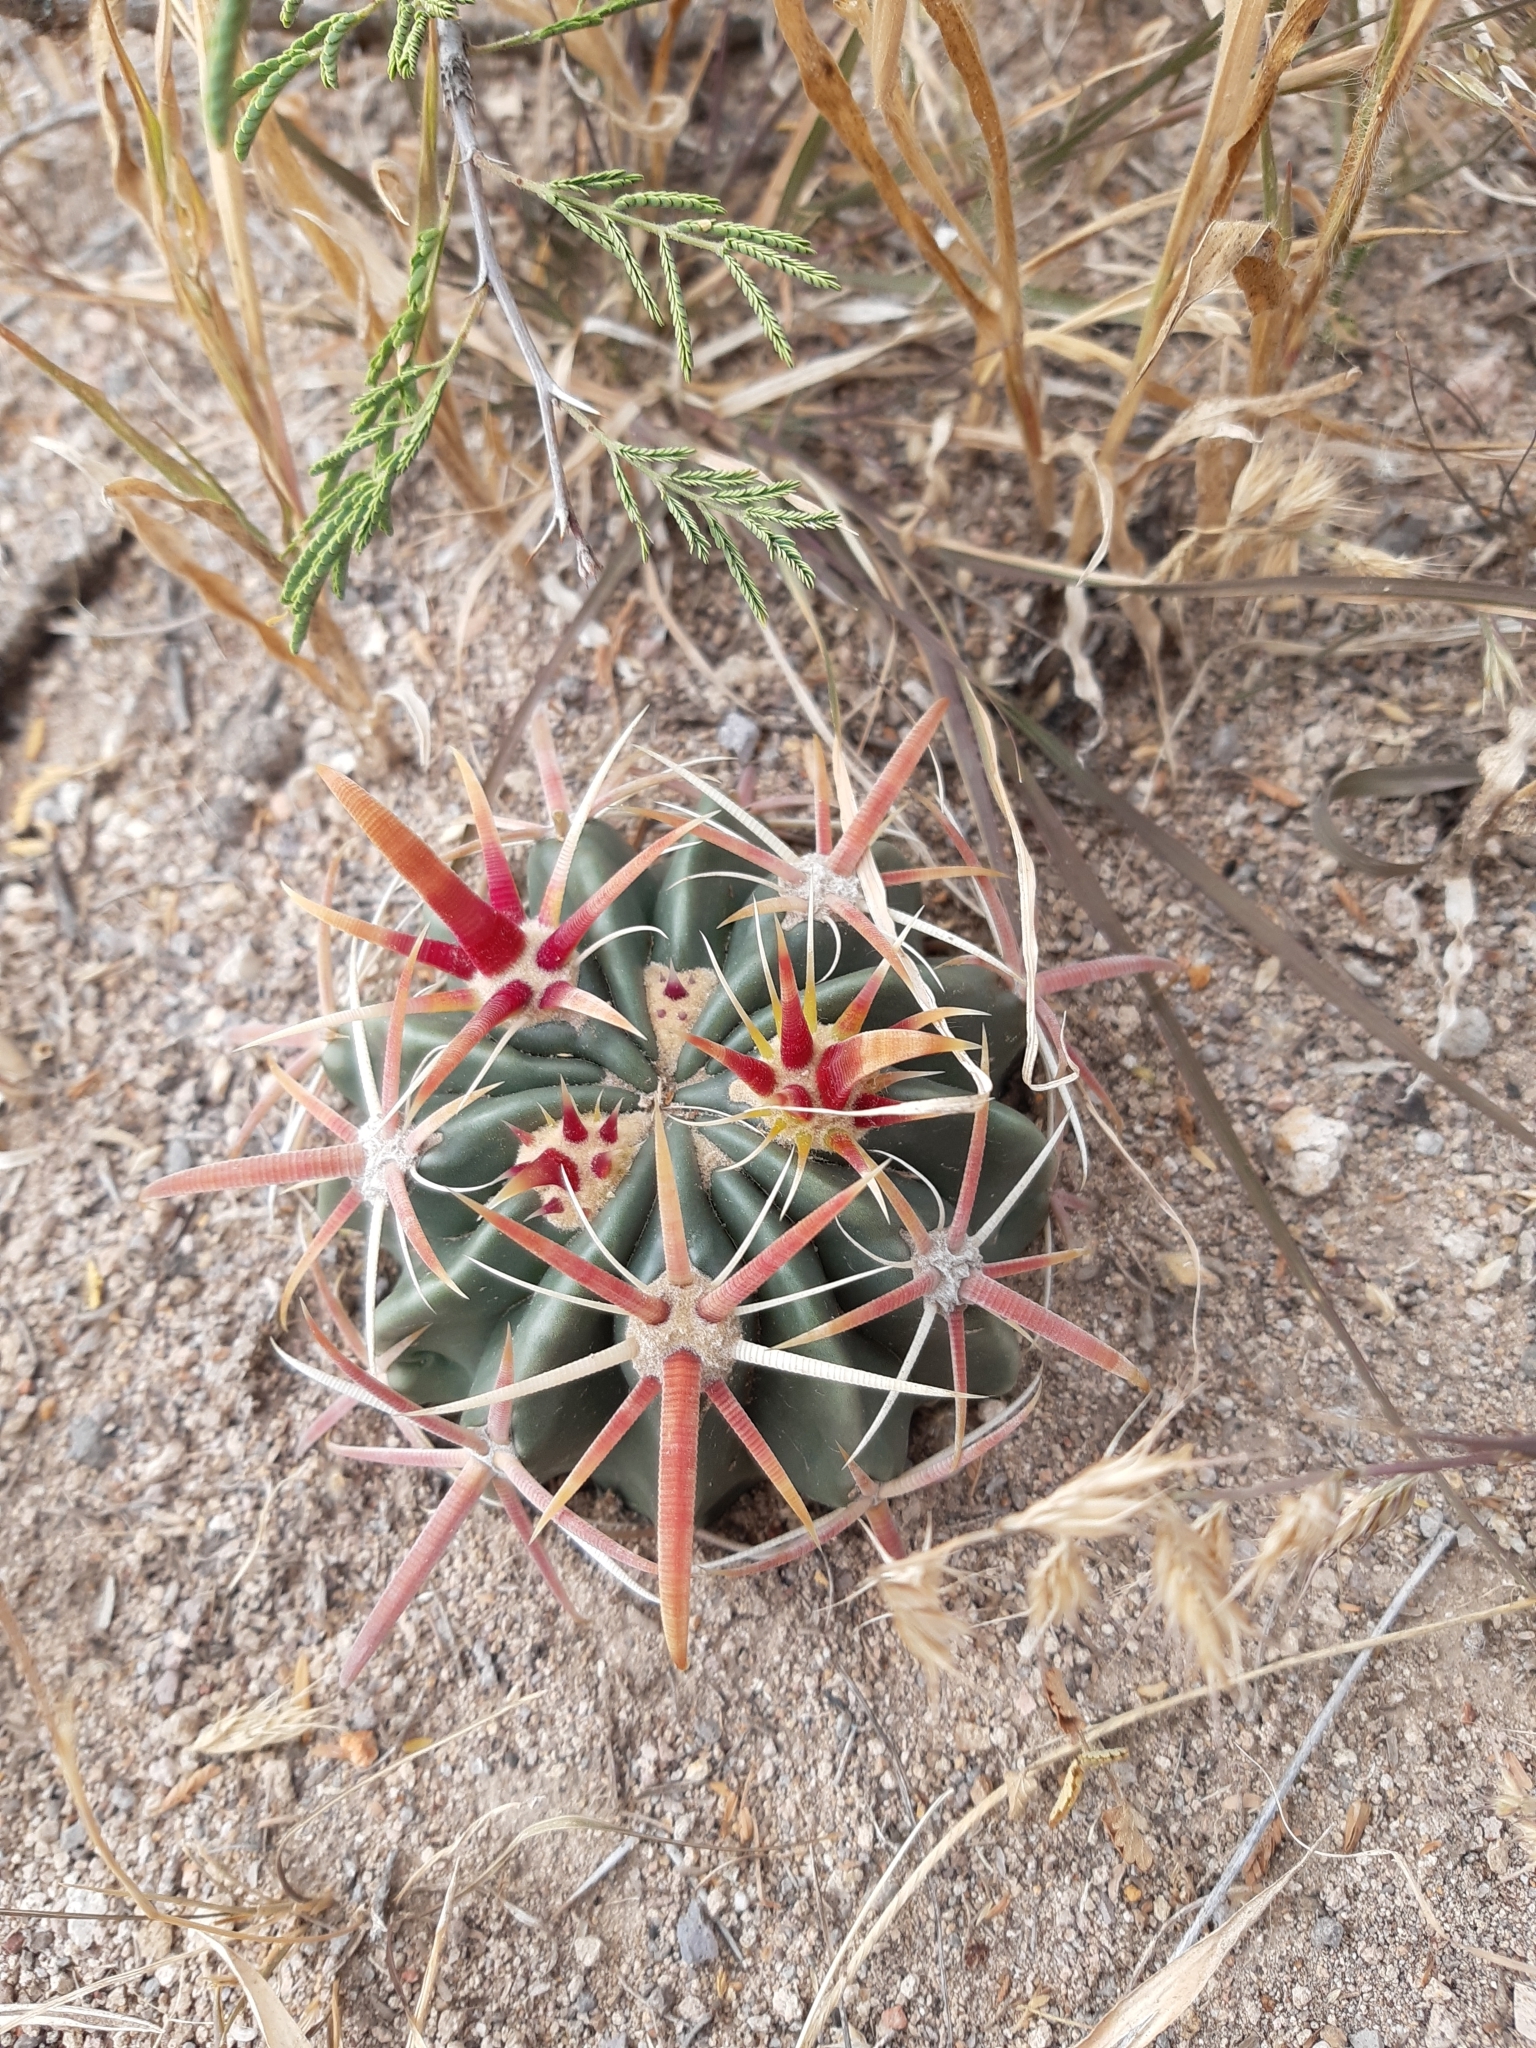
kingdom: Plantae
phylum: Tracheophyta
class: Magnoliopsida
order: Caryophyllales
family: Cactaceae
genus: Ferocactus
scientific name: Ferocactus latispinus
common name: Devil's-tongue cactus
